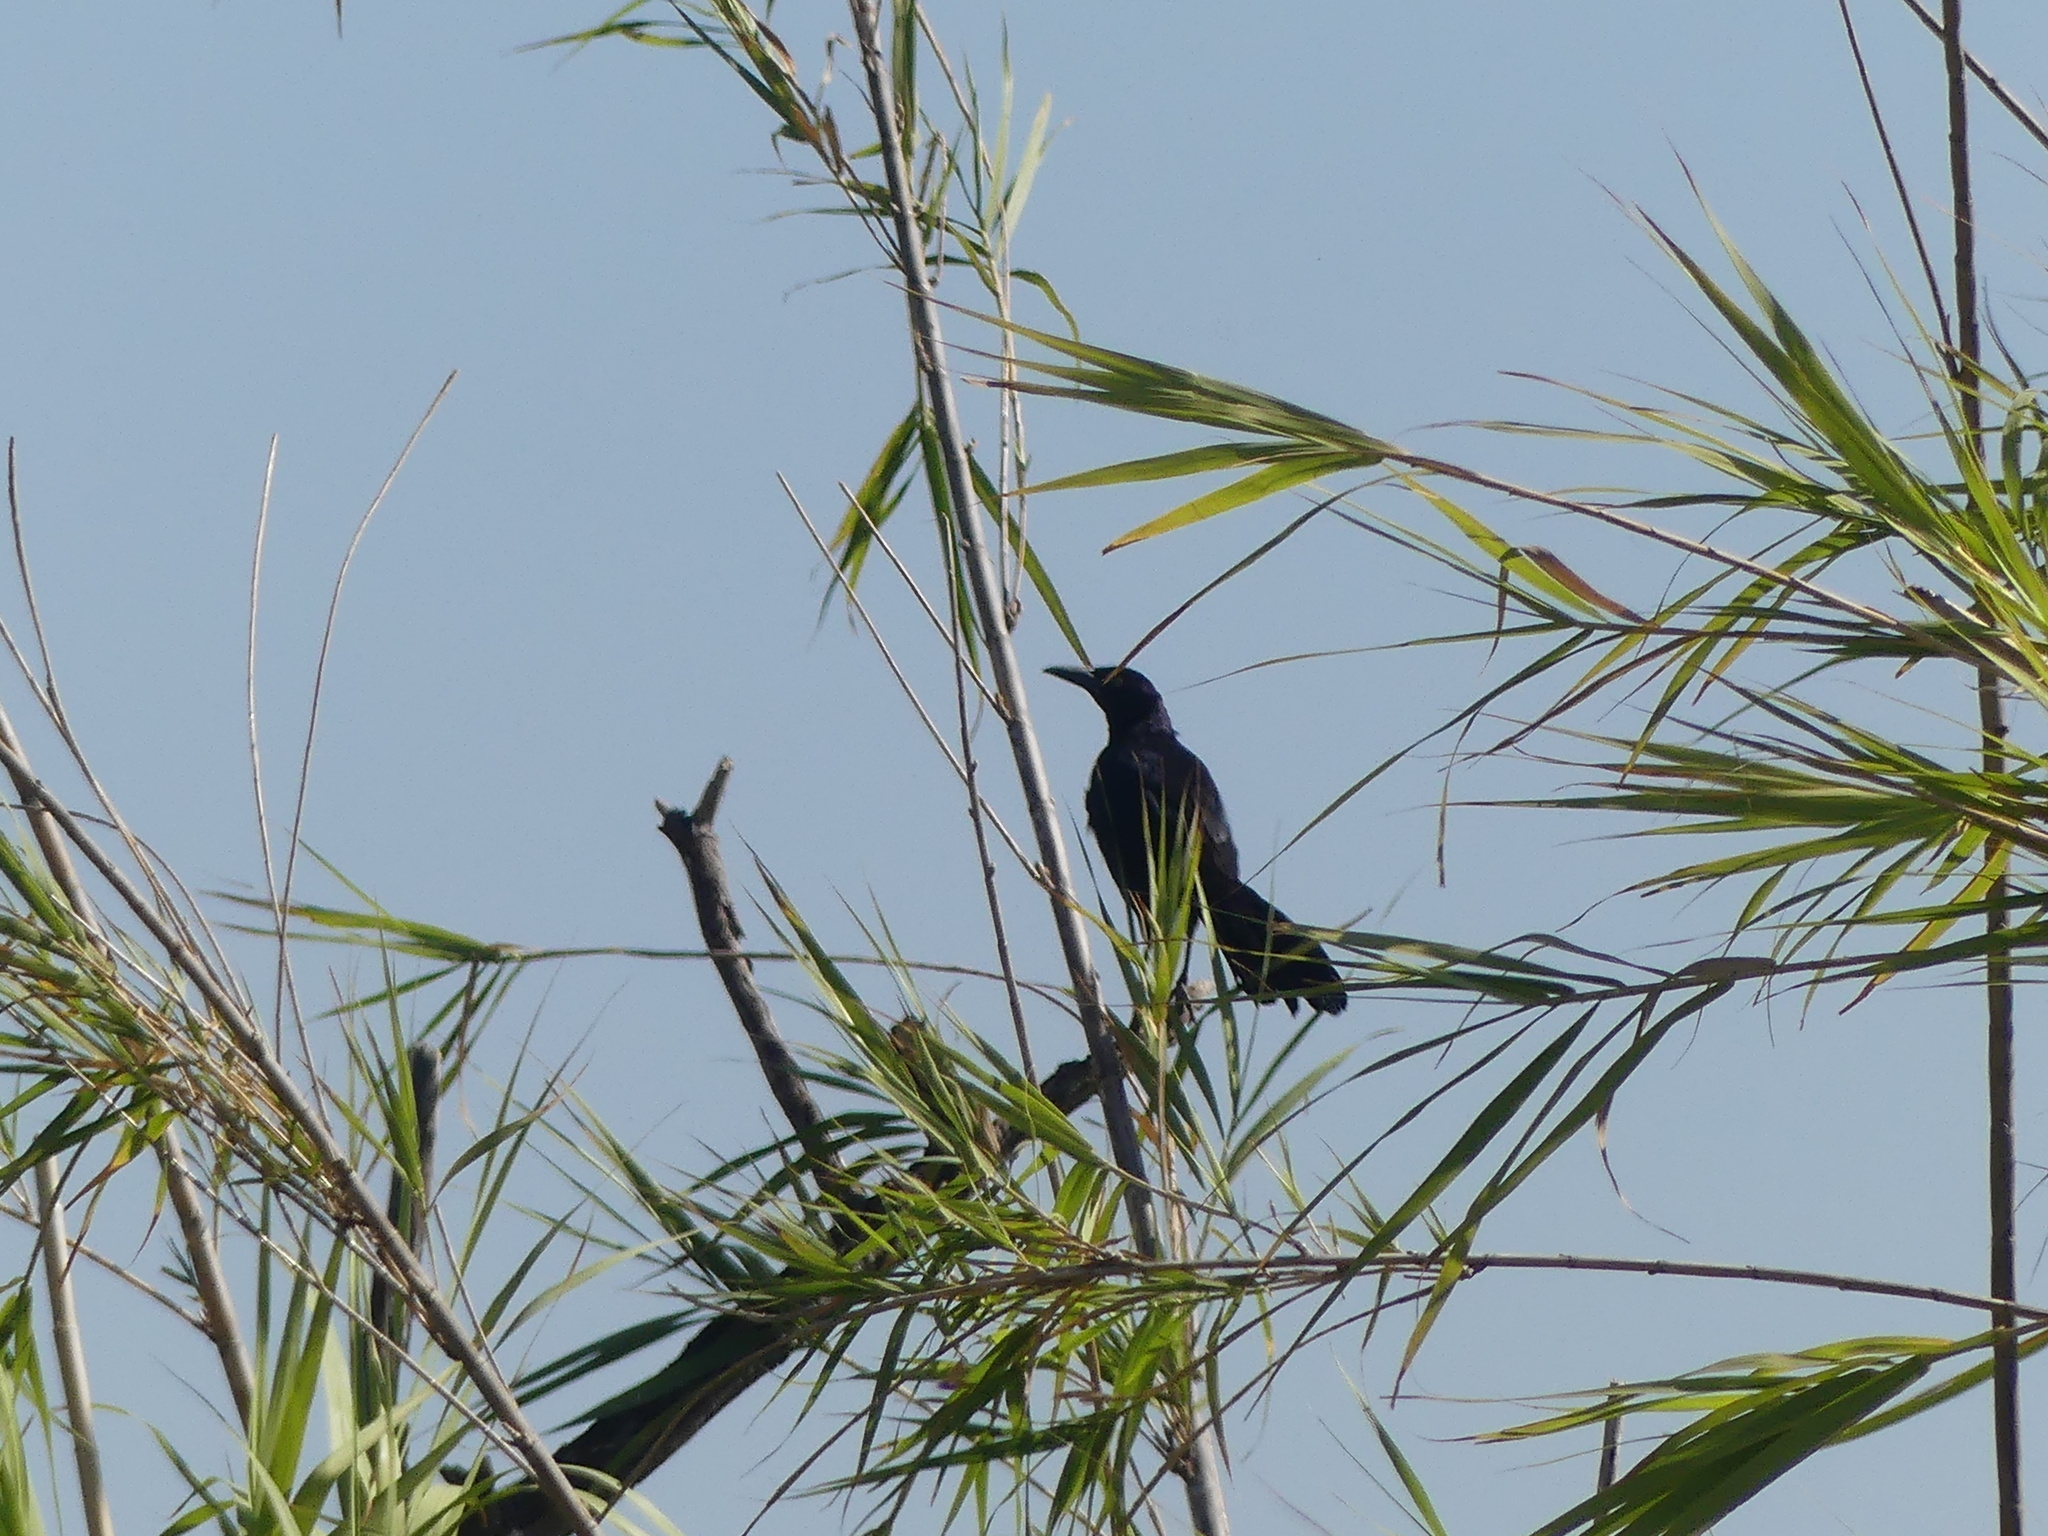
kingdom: Animalia
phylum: Chordata
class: Aves
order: Passeriformes
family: Icteridae
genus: Quiscalus
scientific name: Quiscalus mexicanus
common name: Great-tailed grackle
